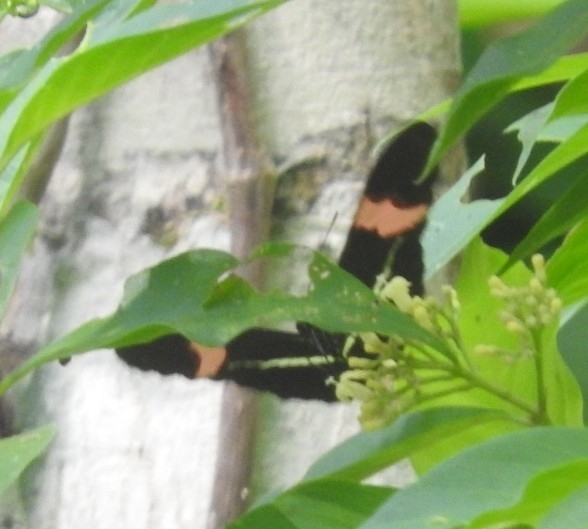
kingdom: Animalia
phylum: Arthropoda
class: Insecta
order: Lepidoptera
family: Nymphalidae
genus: Heliconius
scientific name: Heliconius erato
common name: Common patch longwing
